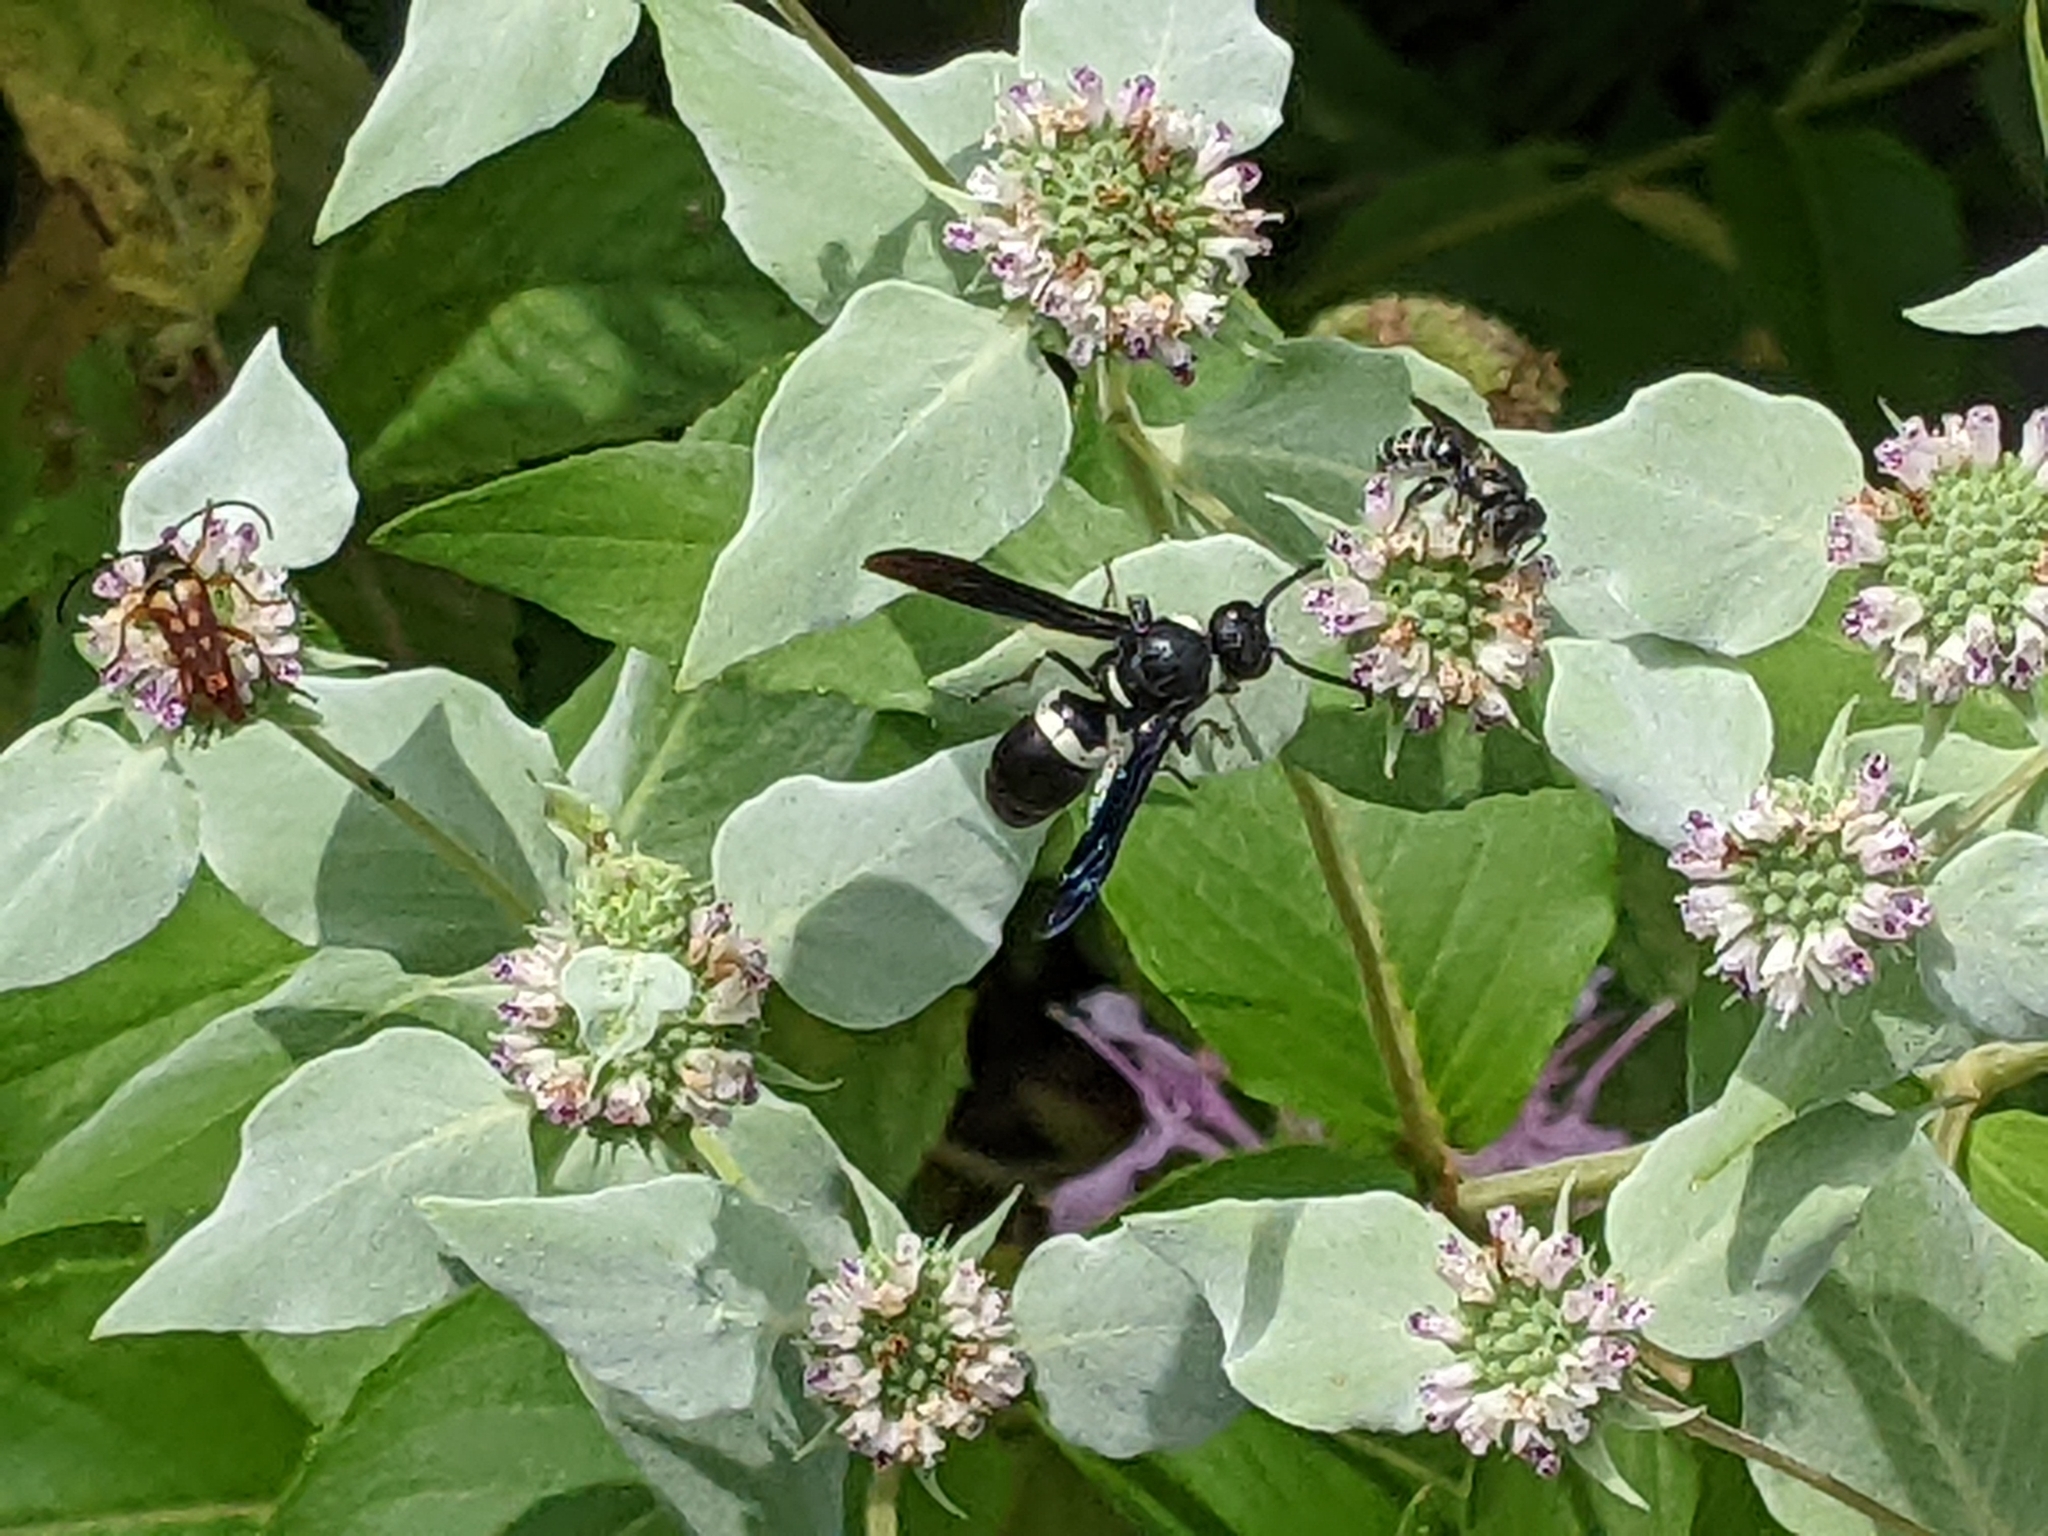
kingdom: Animalia
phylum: Arthropoda
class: Insecta
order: Hymenoptera
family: Eumenidae
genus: Monobia
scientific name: Monobia quadridens
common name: Four-toothed mason wasp
